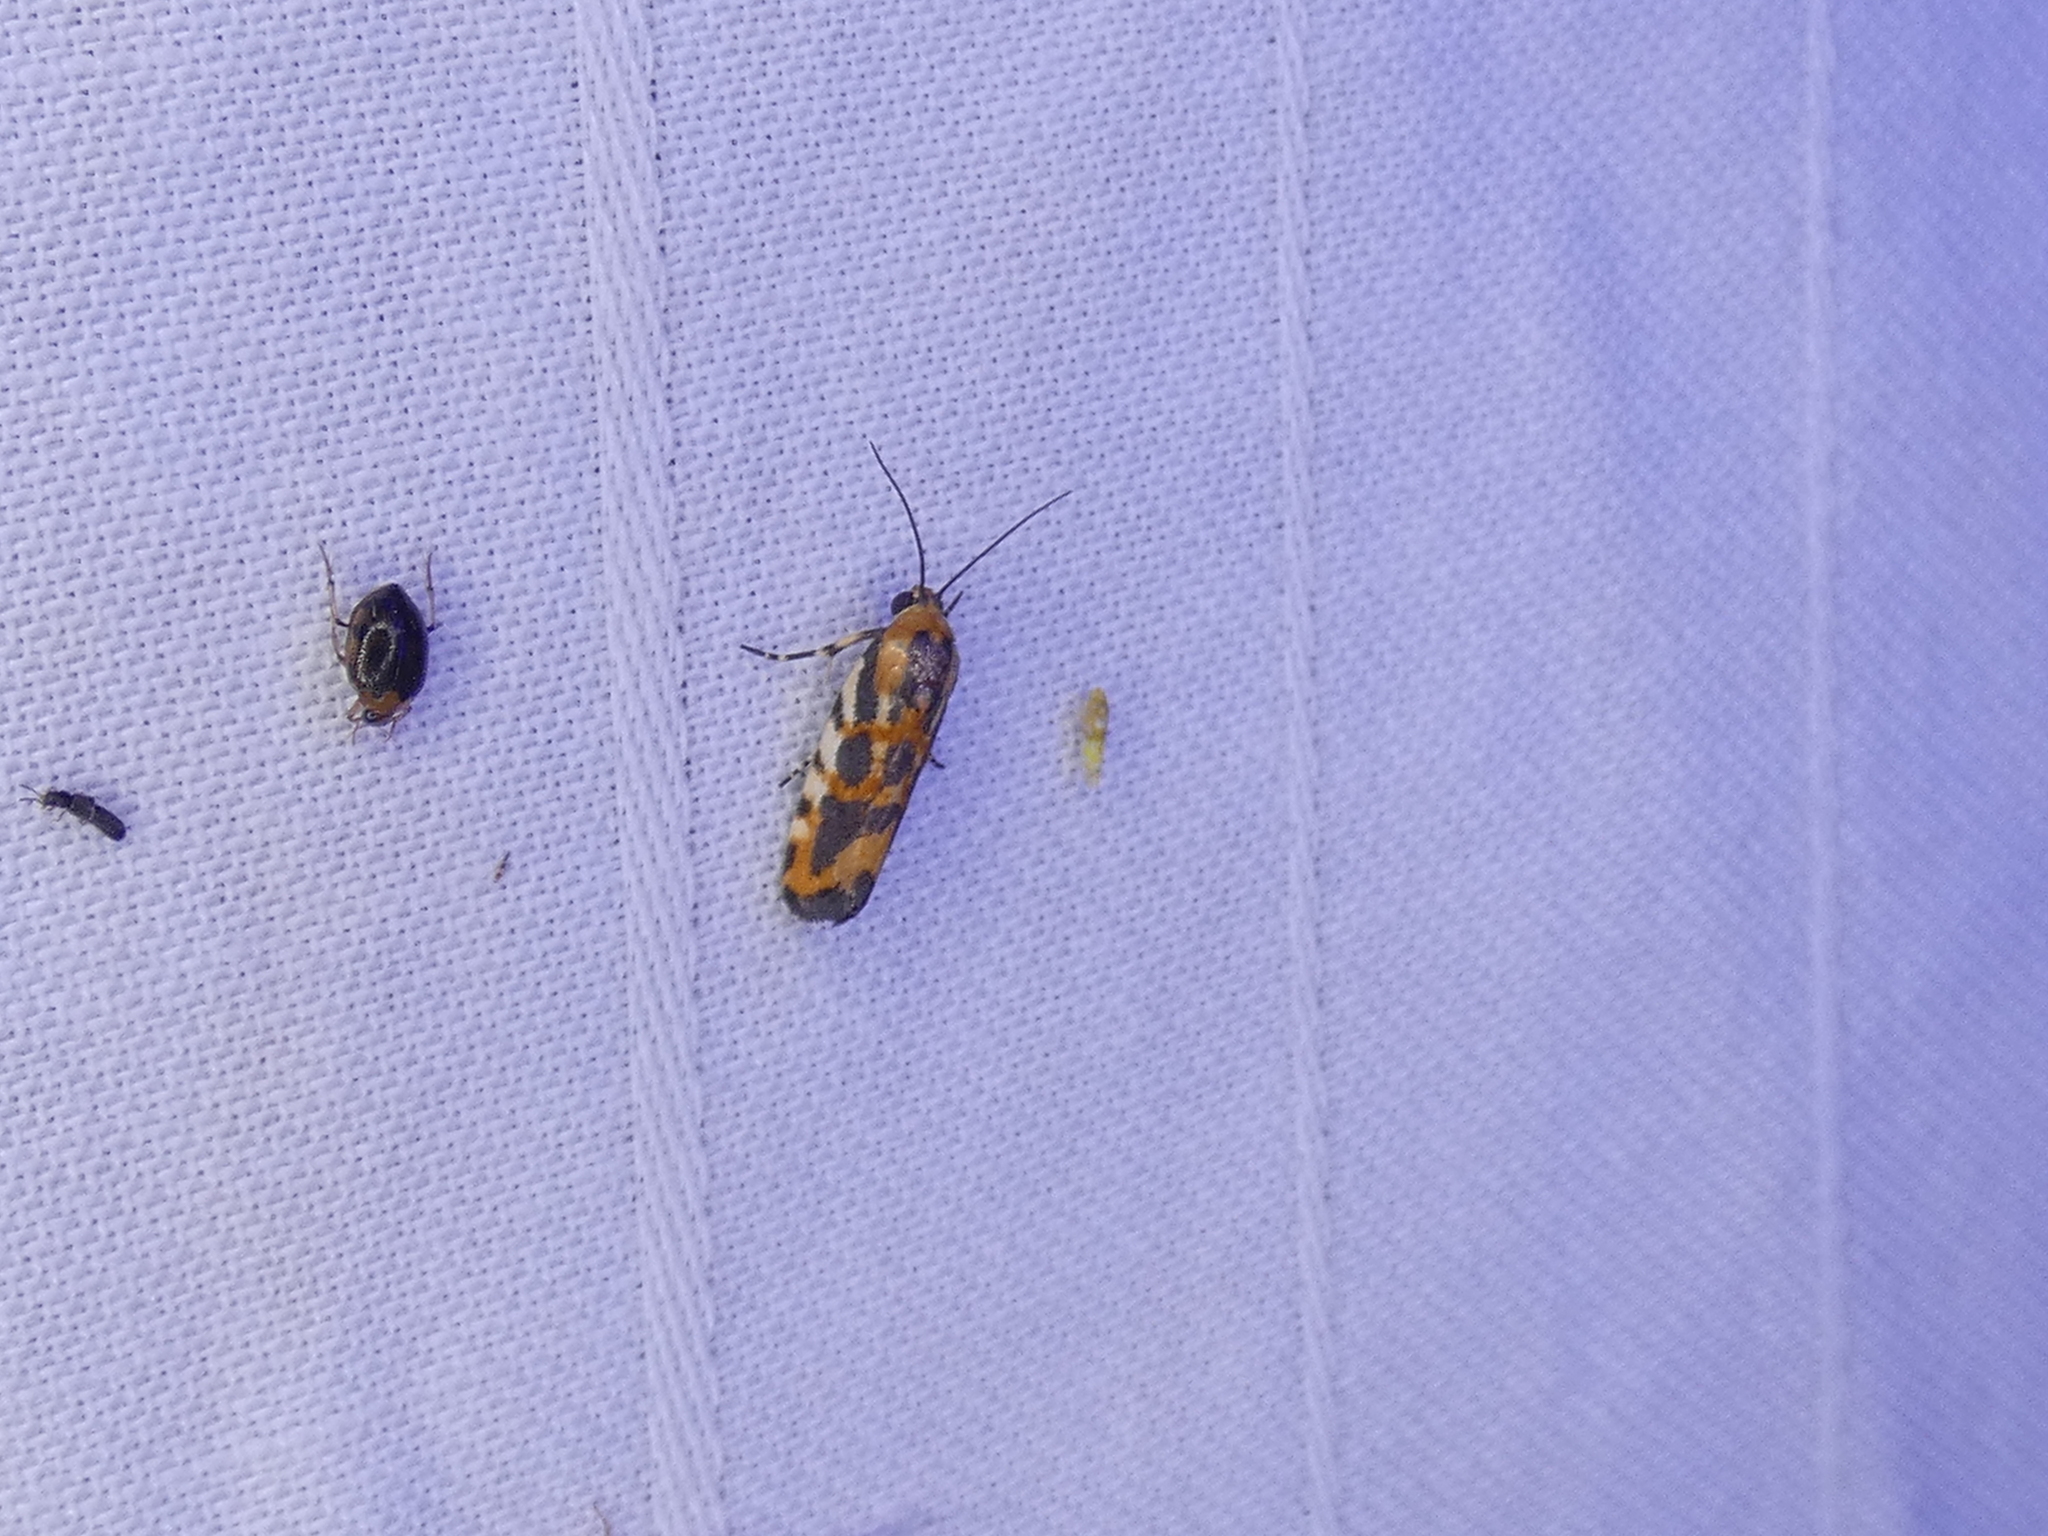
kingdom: Animalia
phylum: Arthropoda
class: Insecta
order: Lepidoptera
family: Noctuidae
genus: Acontia
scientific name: Acontia leo
